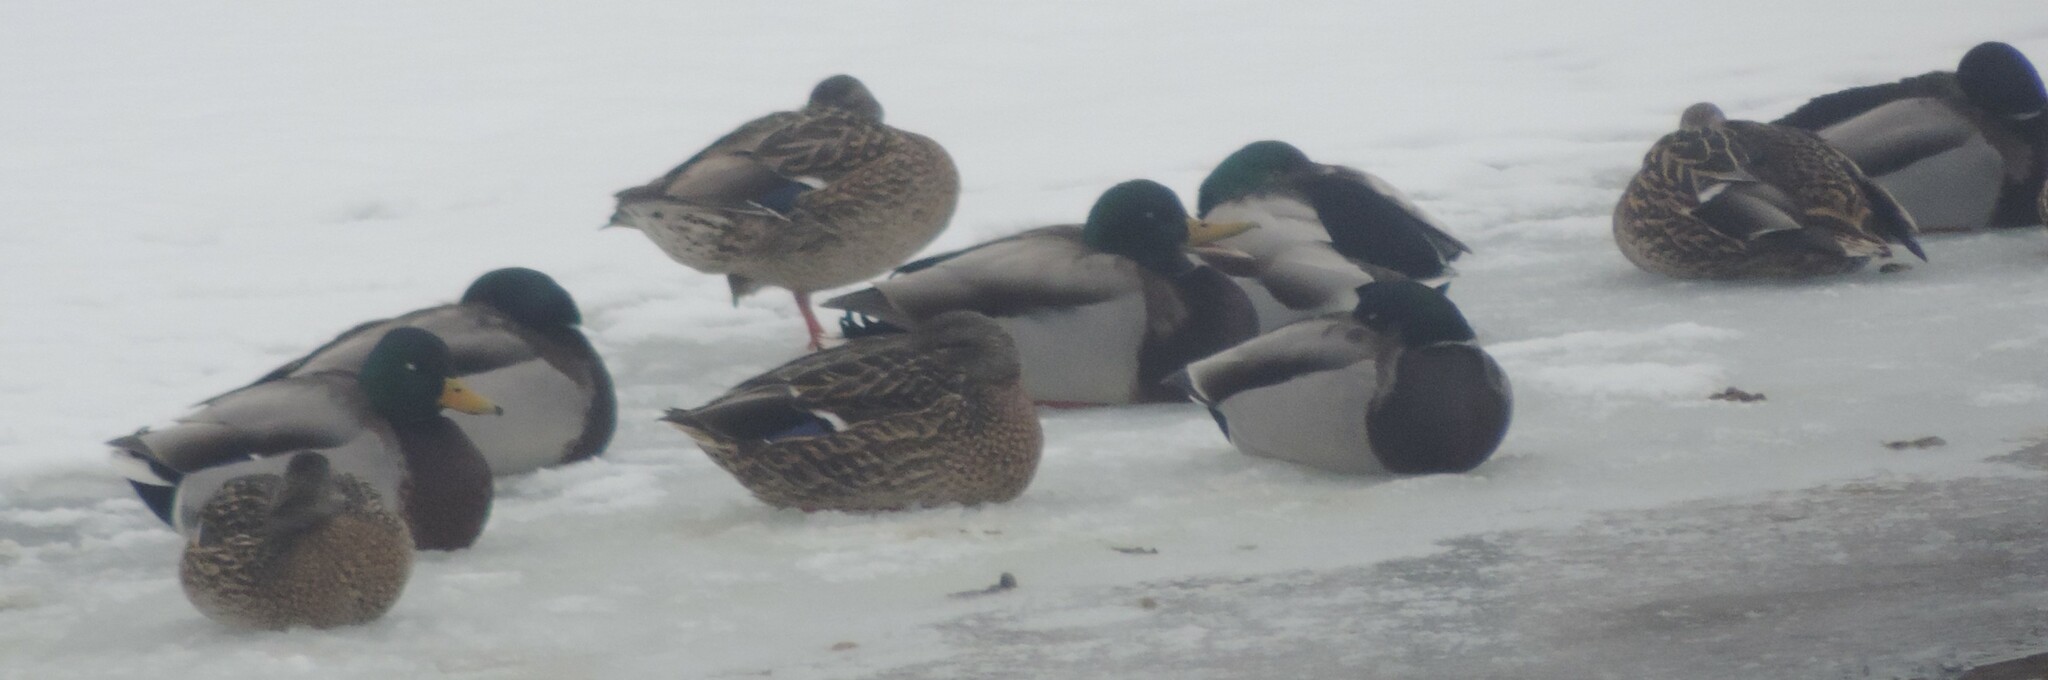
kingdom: Animalia
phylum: Chordata
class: Aves
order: Anseriformes
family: Anatidae
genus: Anas
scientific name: Anas platyrhynchos
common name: Mallard
